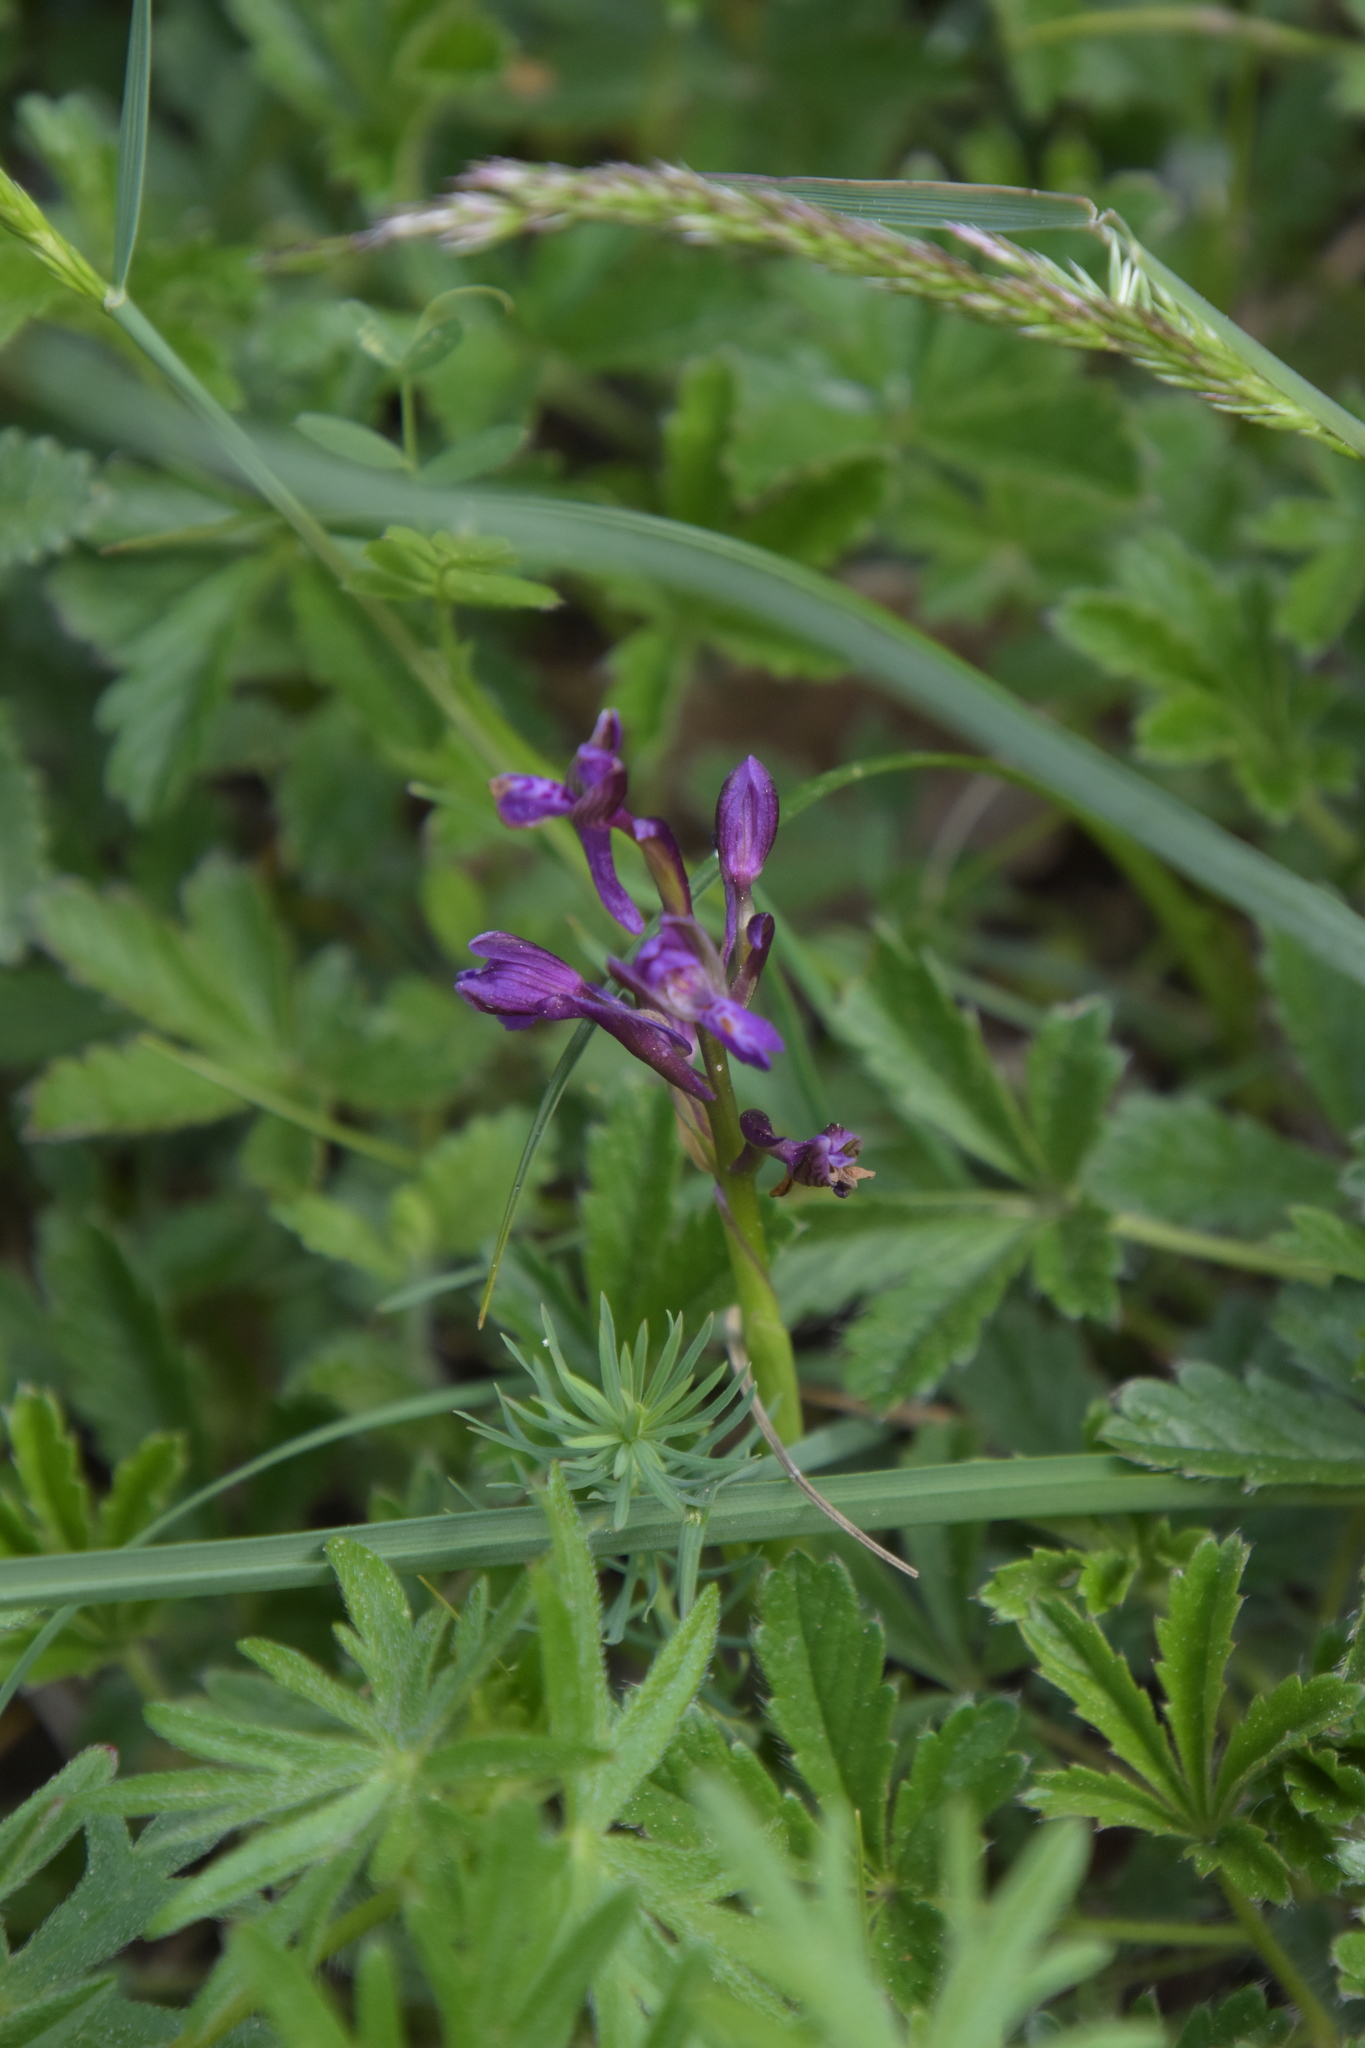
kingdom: Plantae
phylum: Tracheophyta
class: Liliopsida
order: Asparagales
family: Orchidaceae
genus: Anacamptis
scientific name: Anacamptis morio
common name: Green-winged orchid
